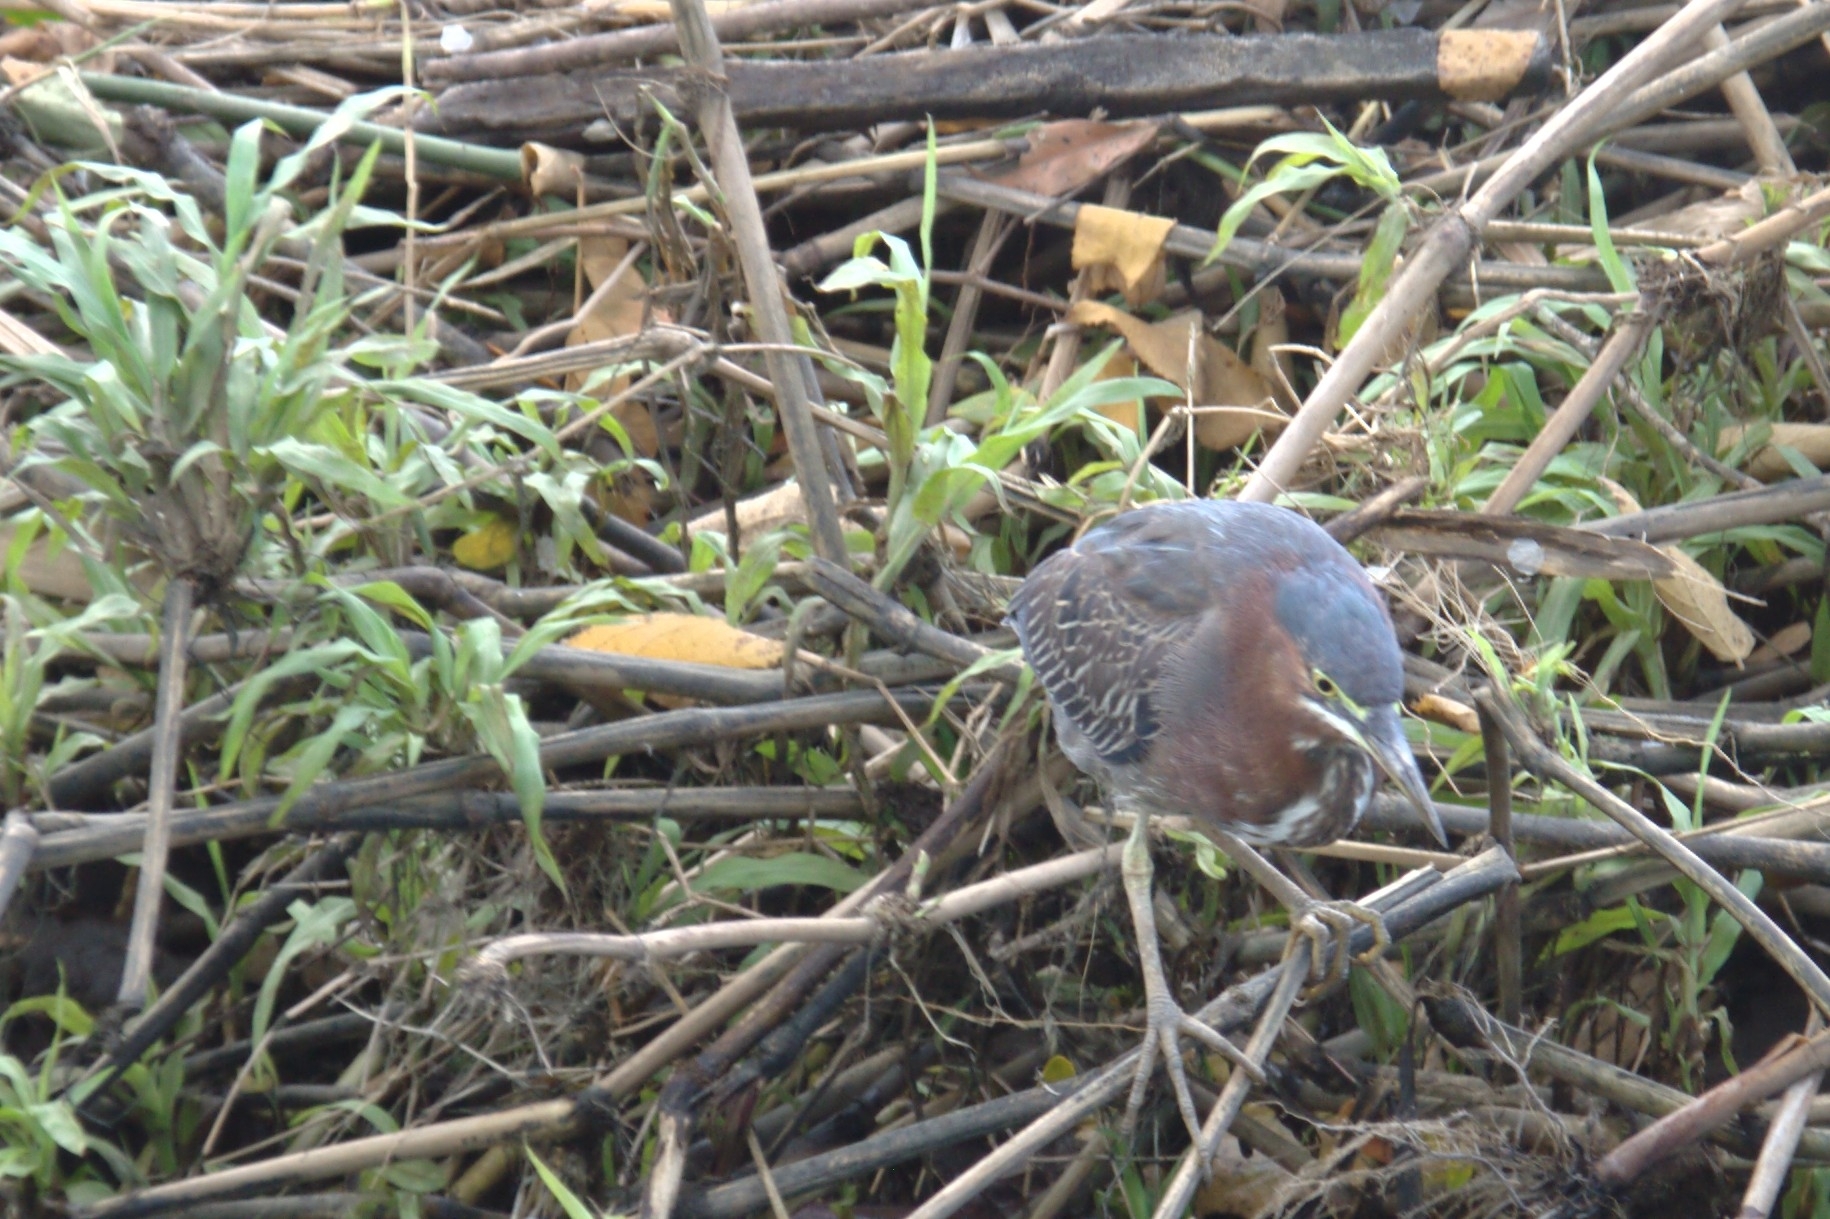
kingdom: Animalia
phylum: Chordata
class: Aves
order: Pelecaniformes
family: Ardeidae
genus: Butorides
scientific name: Butorides virescens
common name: Green heron
